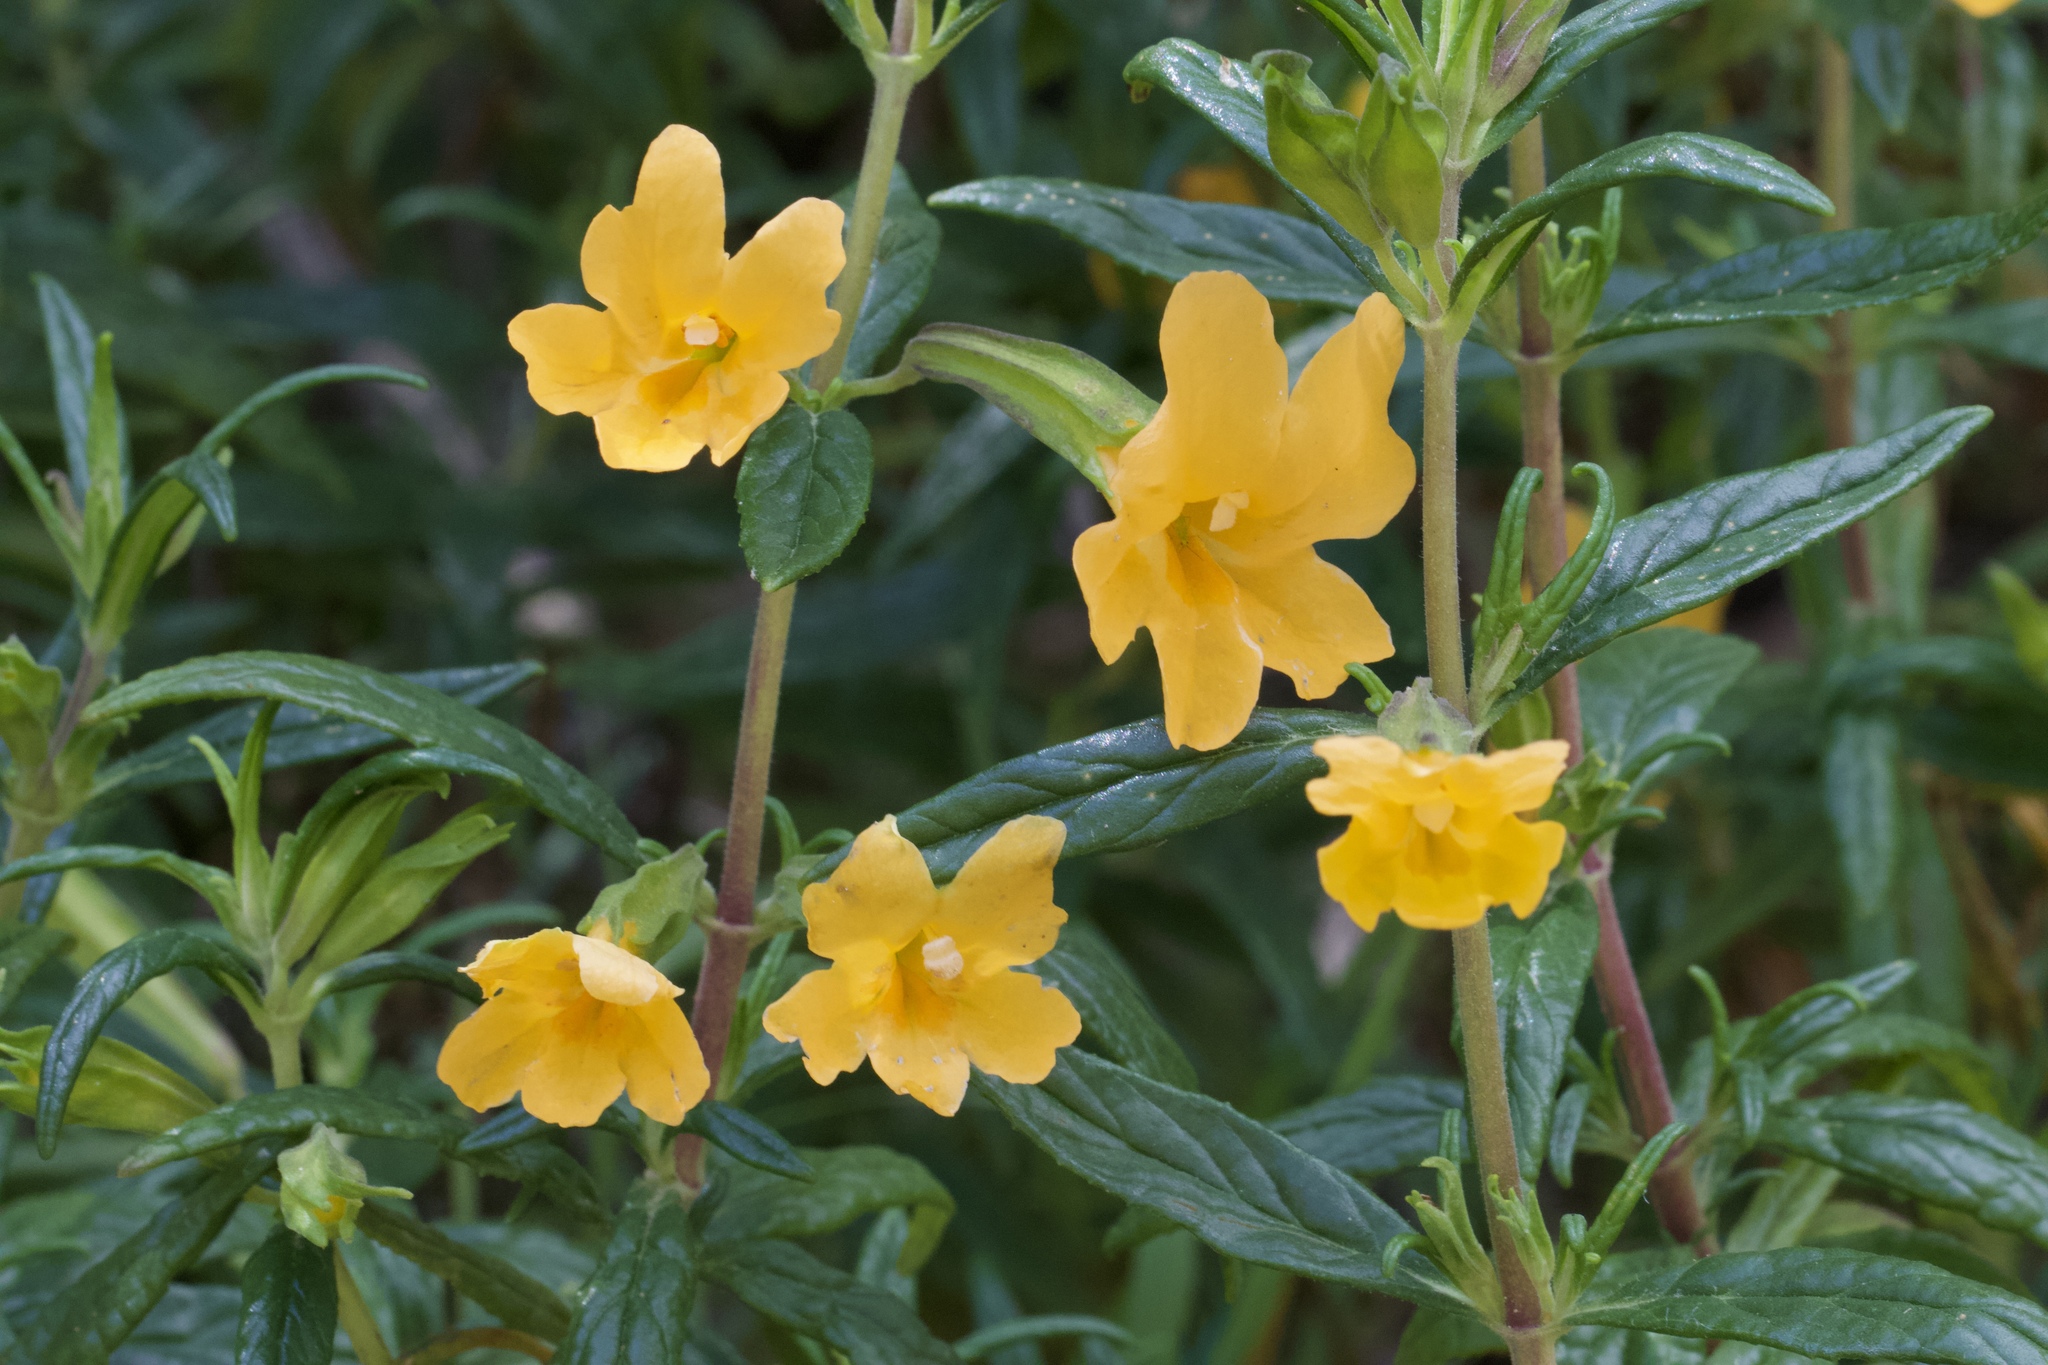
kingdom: Plantae
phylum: Tracheophyta
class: Magnoliopsida
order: Lamiales
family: Phrymaceae
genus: Diplacus
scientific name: Diplacus aurantiacus
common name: Bush monkey-flower
